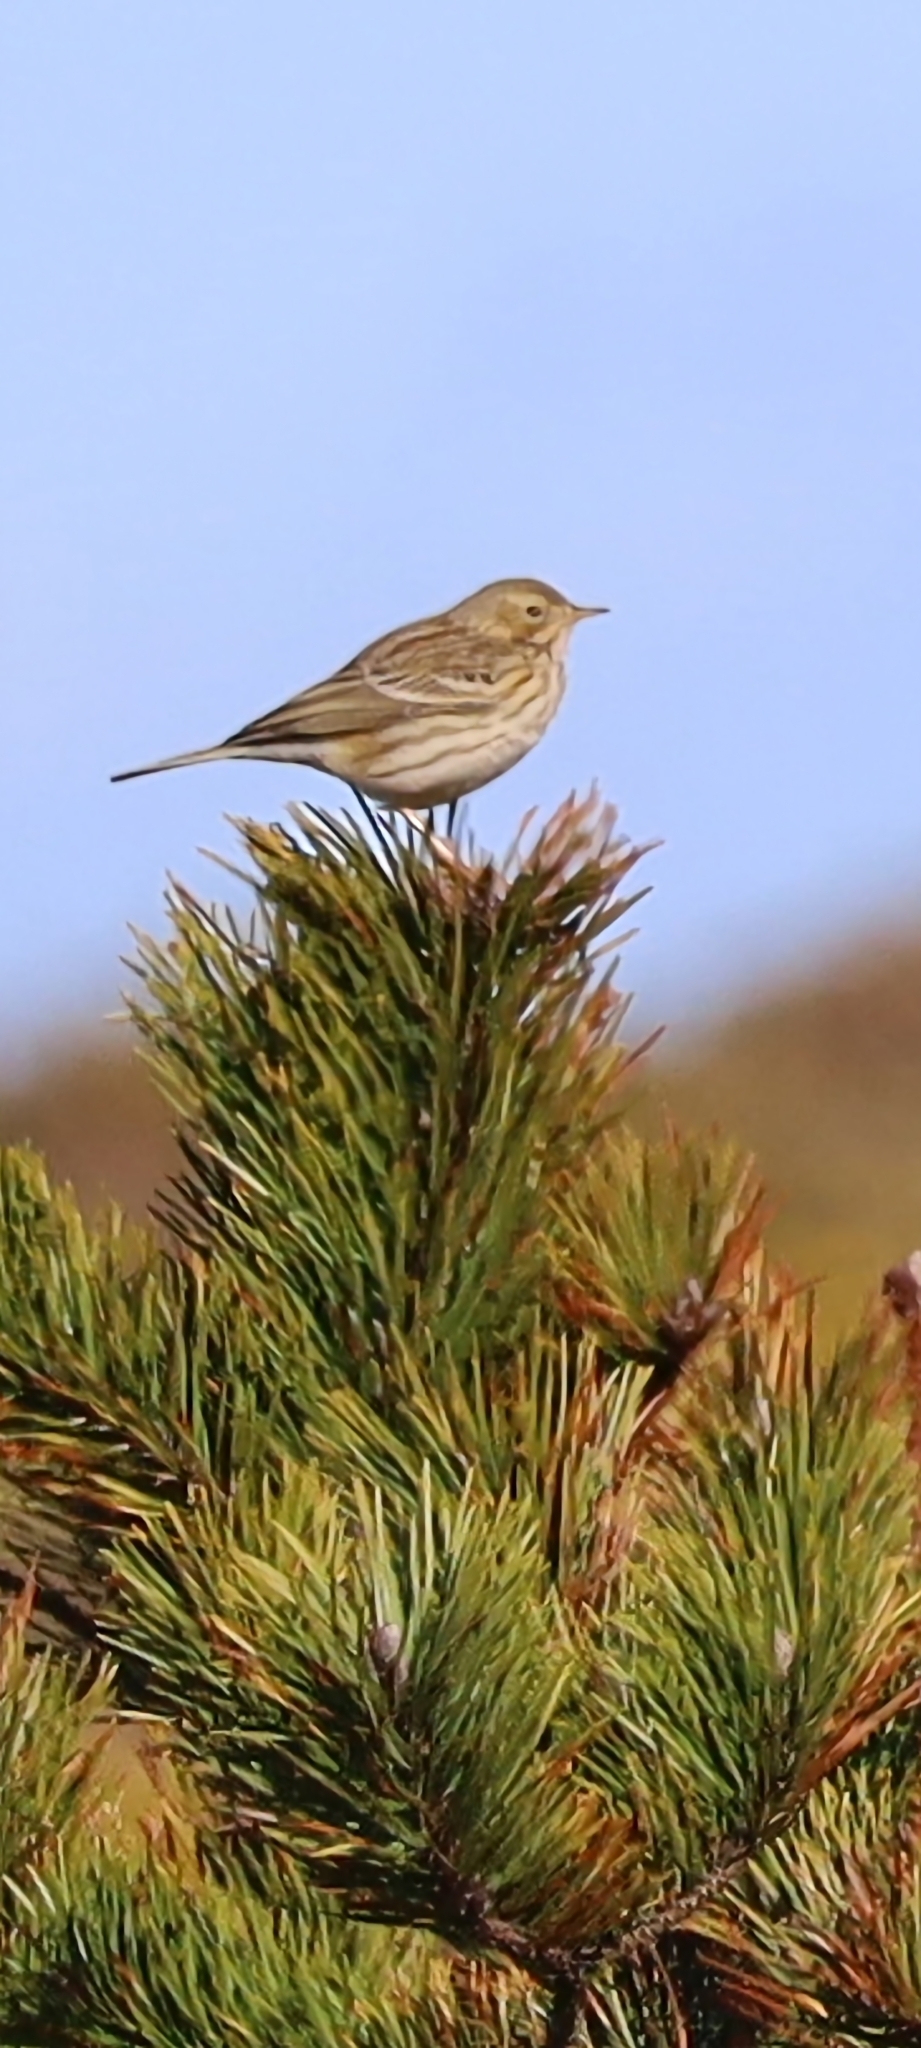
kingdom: Animalia
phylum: Chordata
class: Aves
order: Passeriformes
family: Motacillidae
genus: Anthus
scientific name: Anthus pratensis
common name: Meadow pipit
